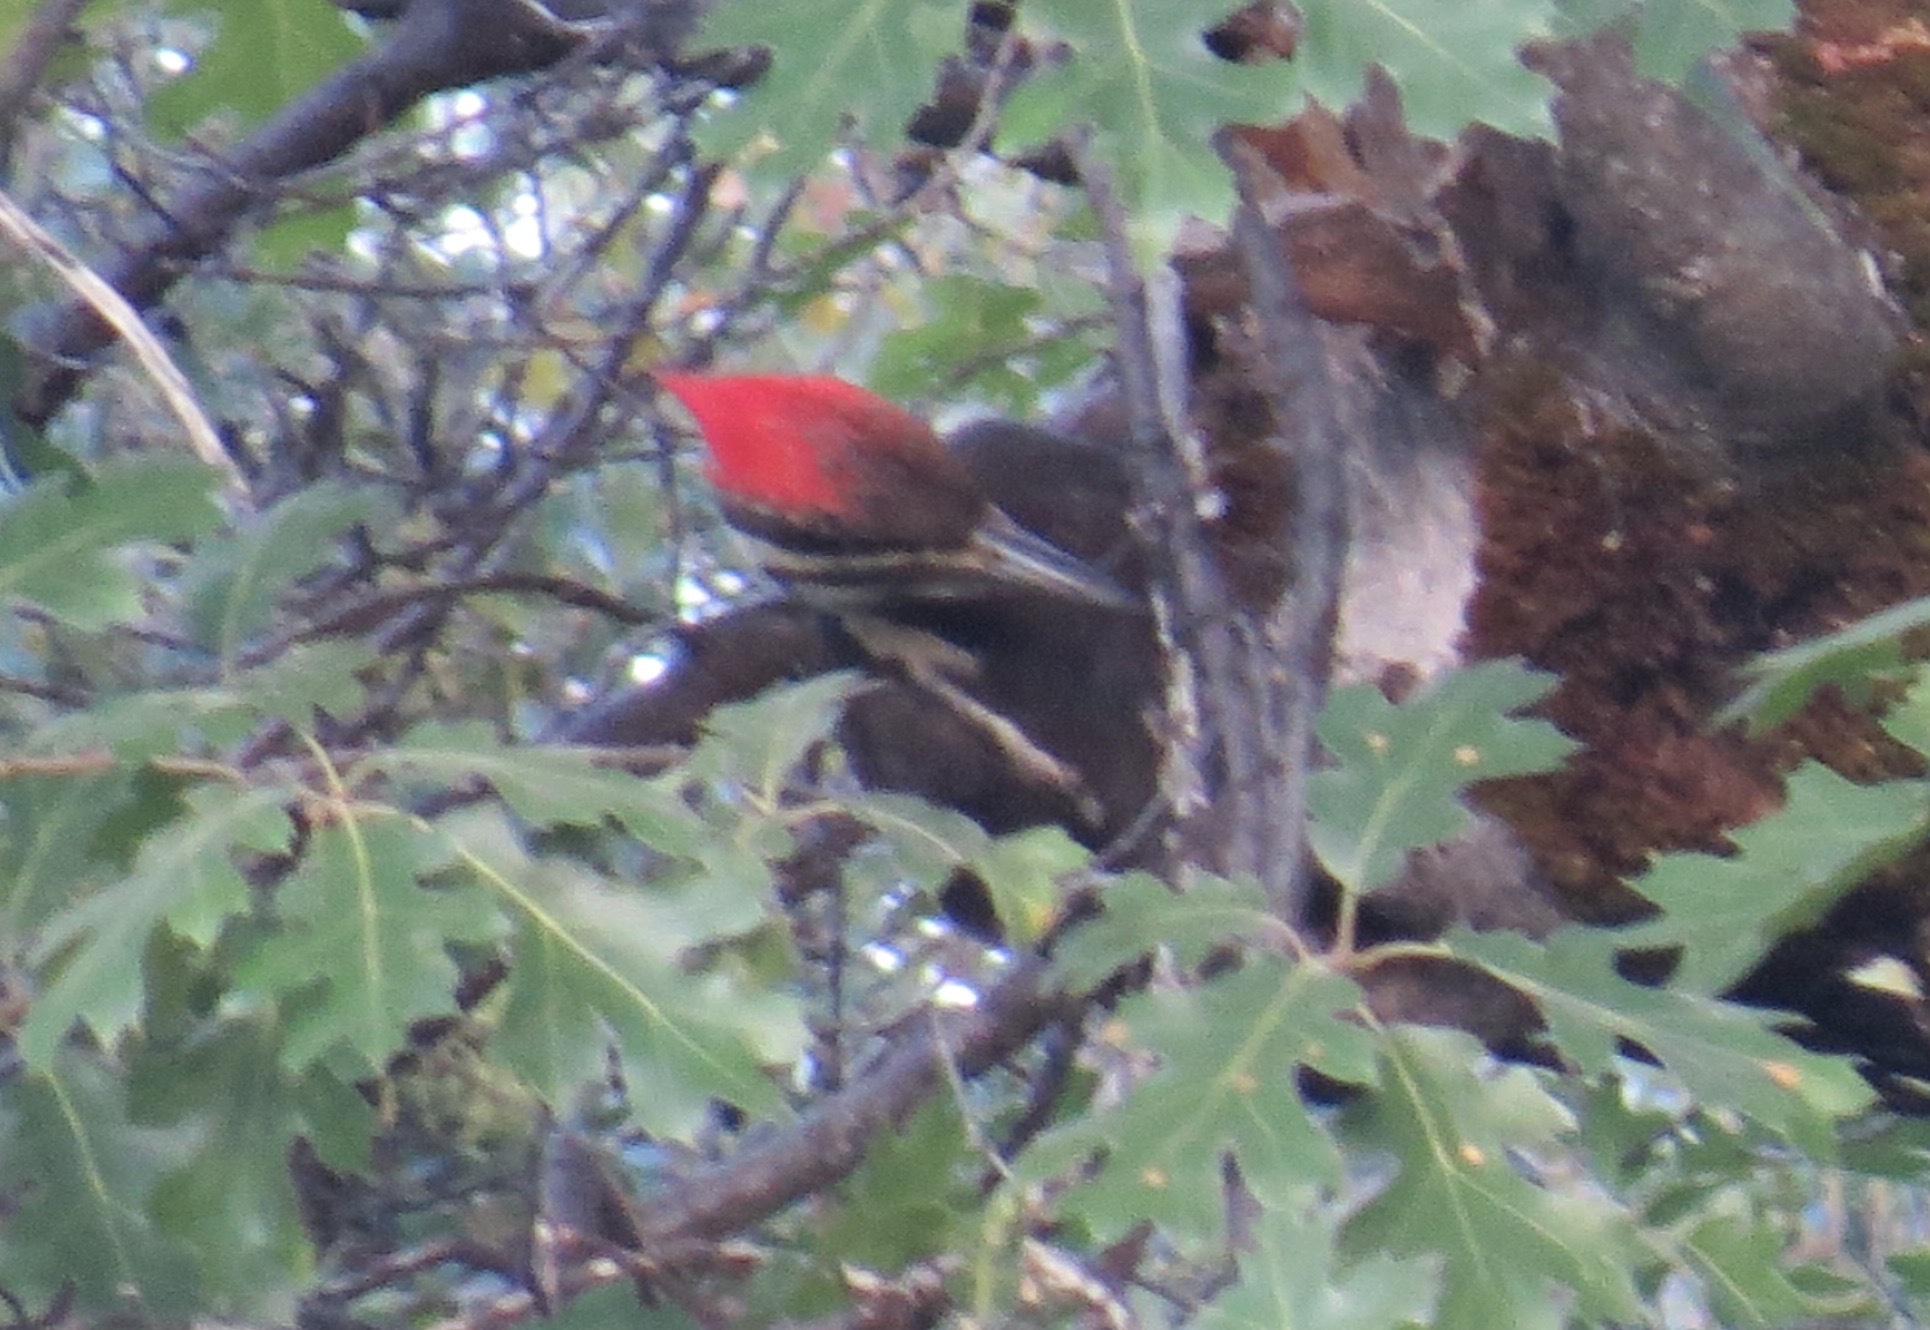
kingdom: Animalia
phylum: Chordata
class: Aves
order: Piciformes
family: Picidae
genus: Dryocopus
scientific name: Dryocopus pileatus
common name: Pileated woodpecker
